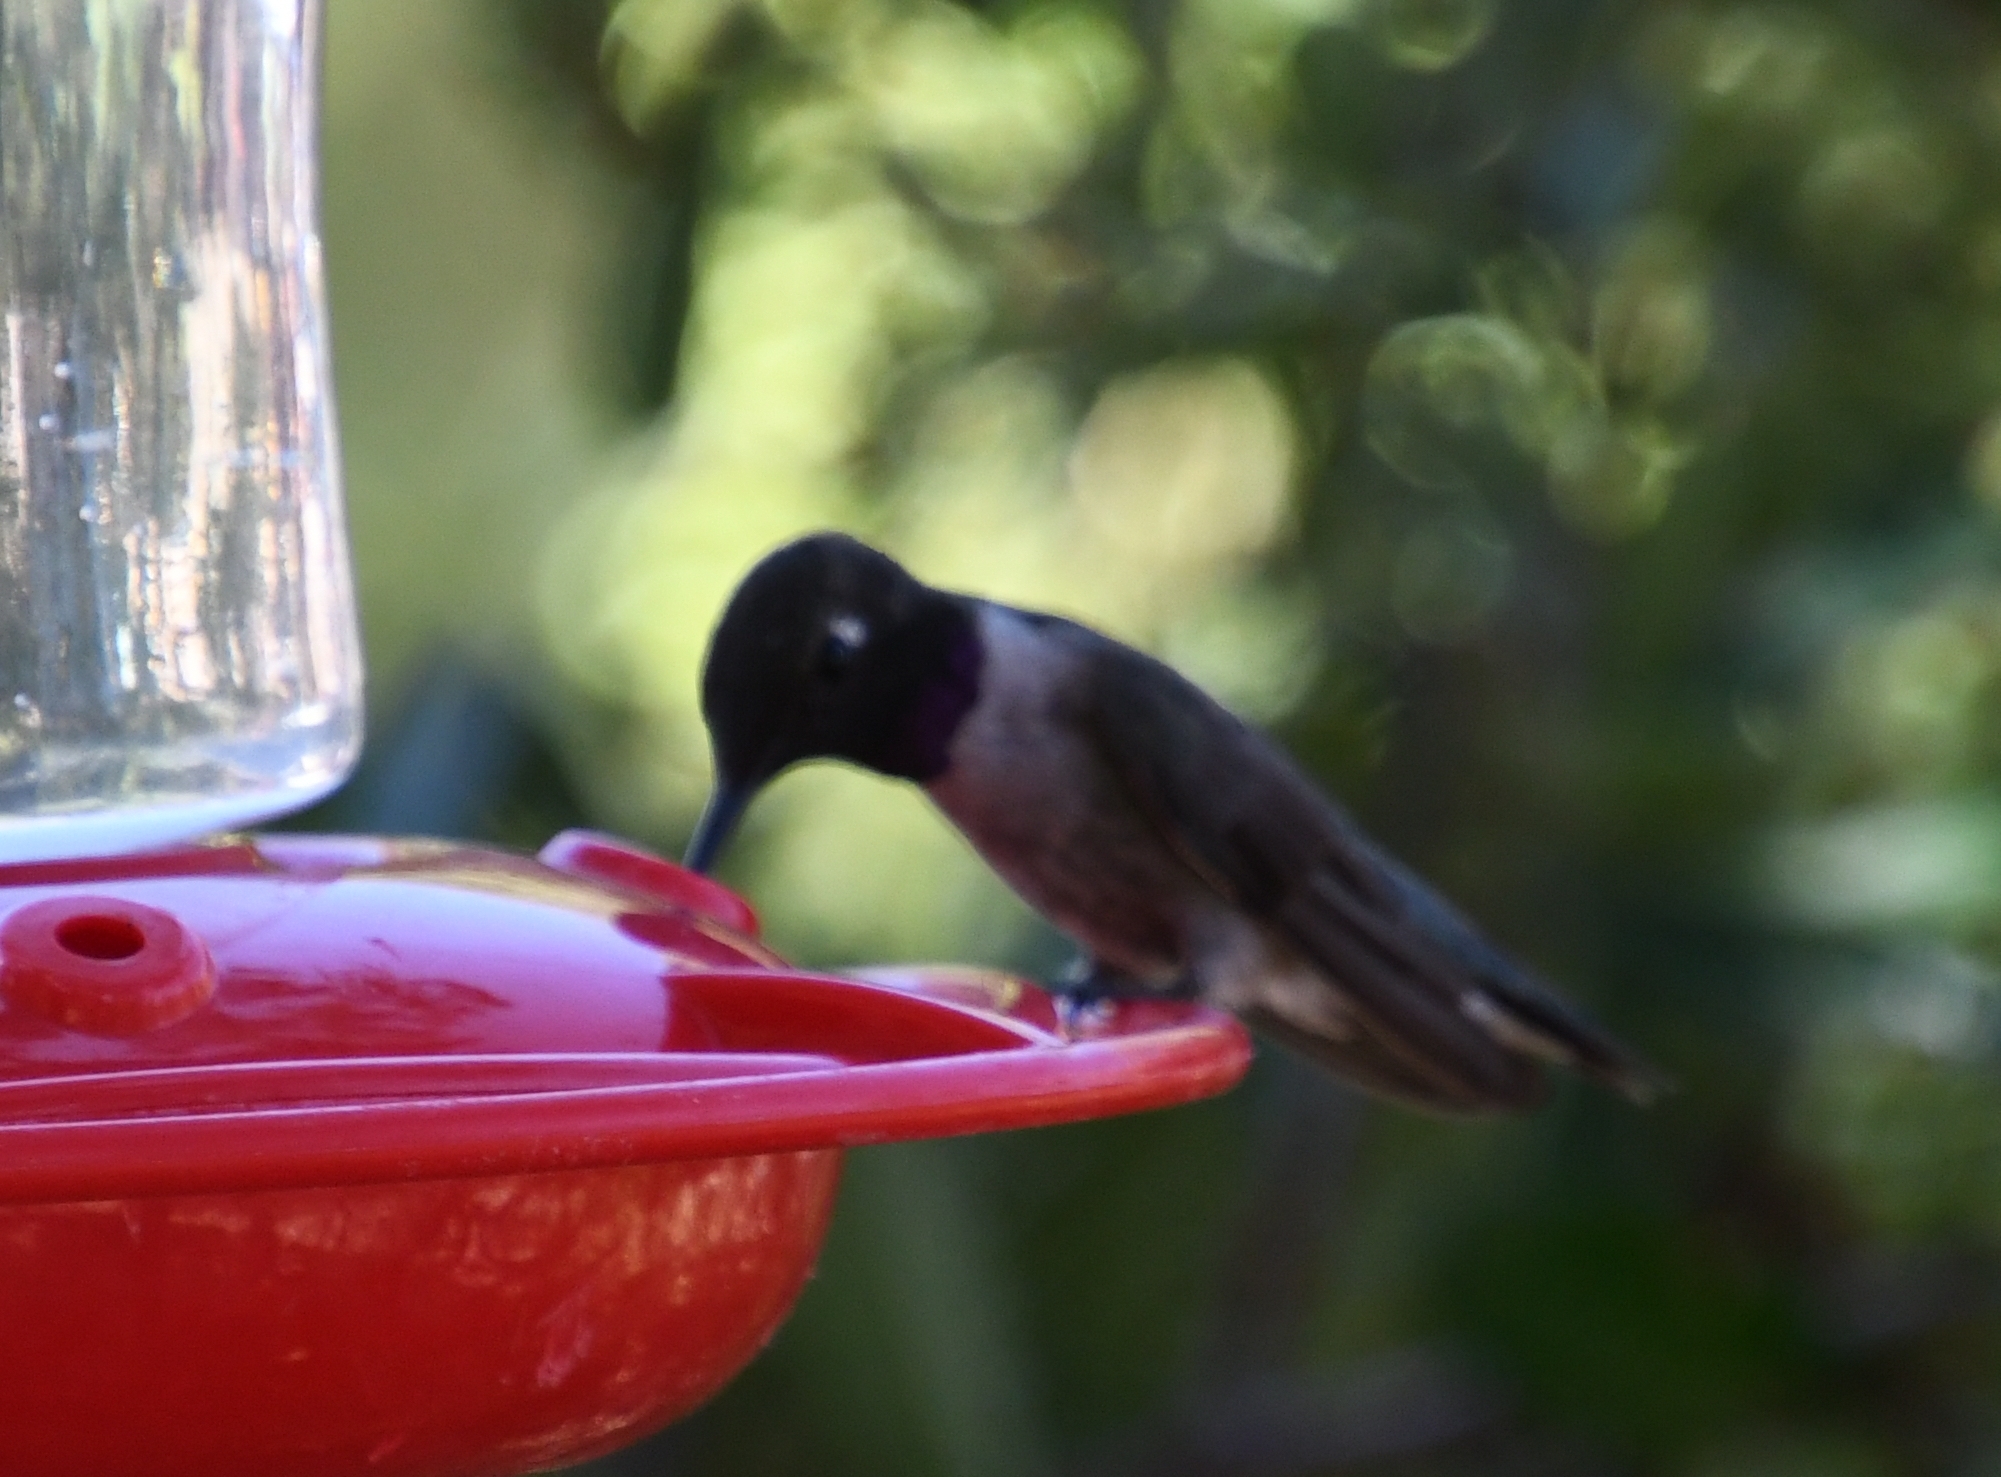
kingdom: Animalia
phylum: Chordata
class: Aves
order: Apodiformes
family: Trochilidae
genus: Archilochus
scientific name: Archilochus alexandri
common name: Black-chinned hummingbird
